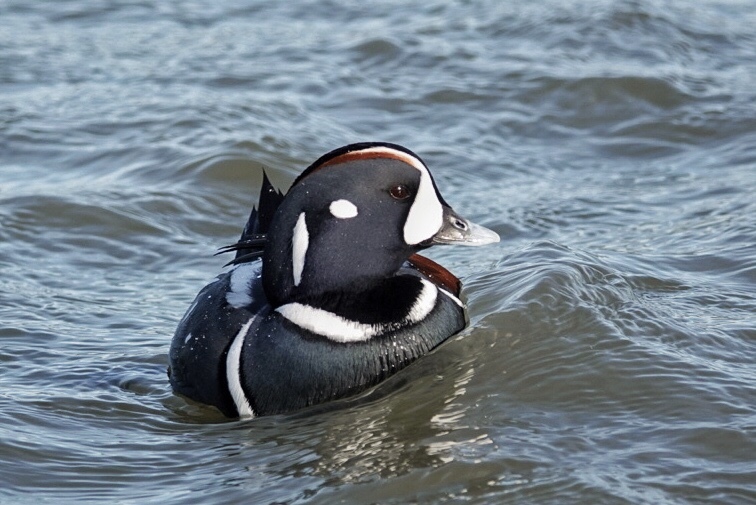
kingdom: Animalia
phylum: Chordata
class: Aves
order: Anseriformes
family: Anatidae
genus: Histrionicus
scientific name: Histrionicus histrionicus
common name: Harlequin duck
